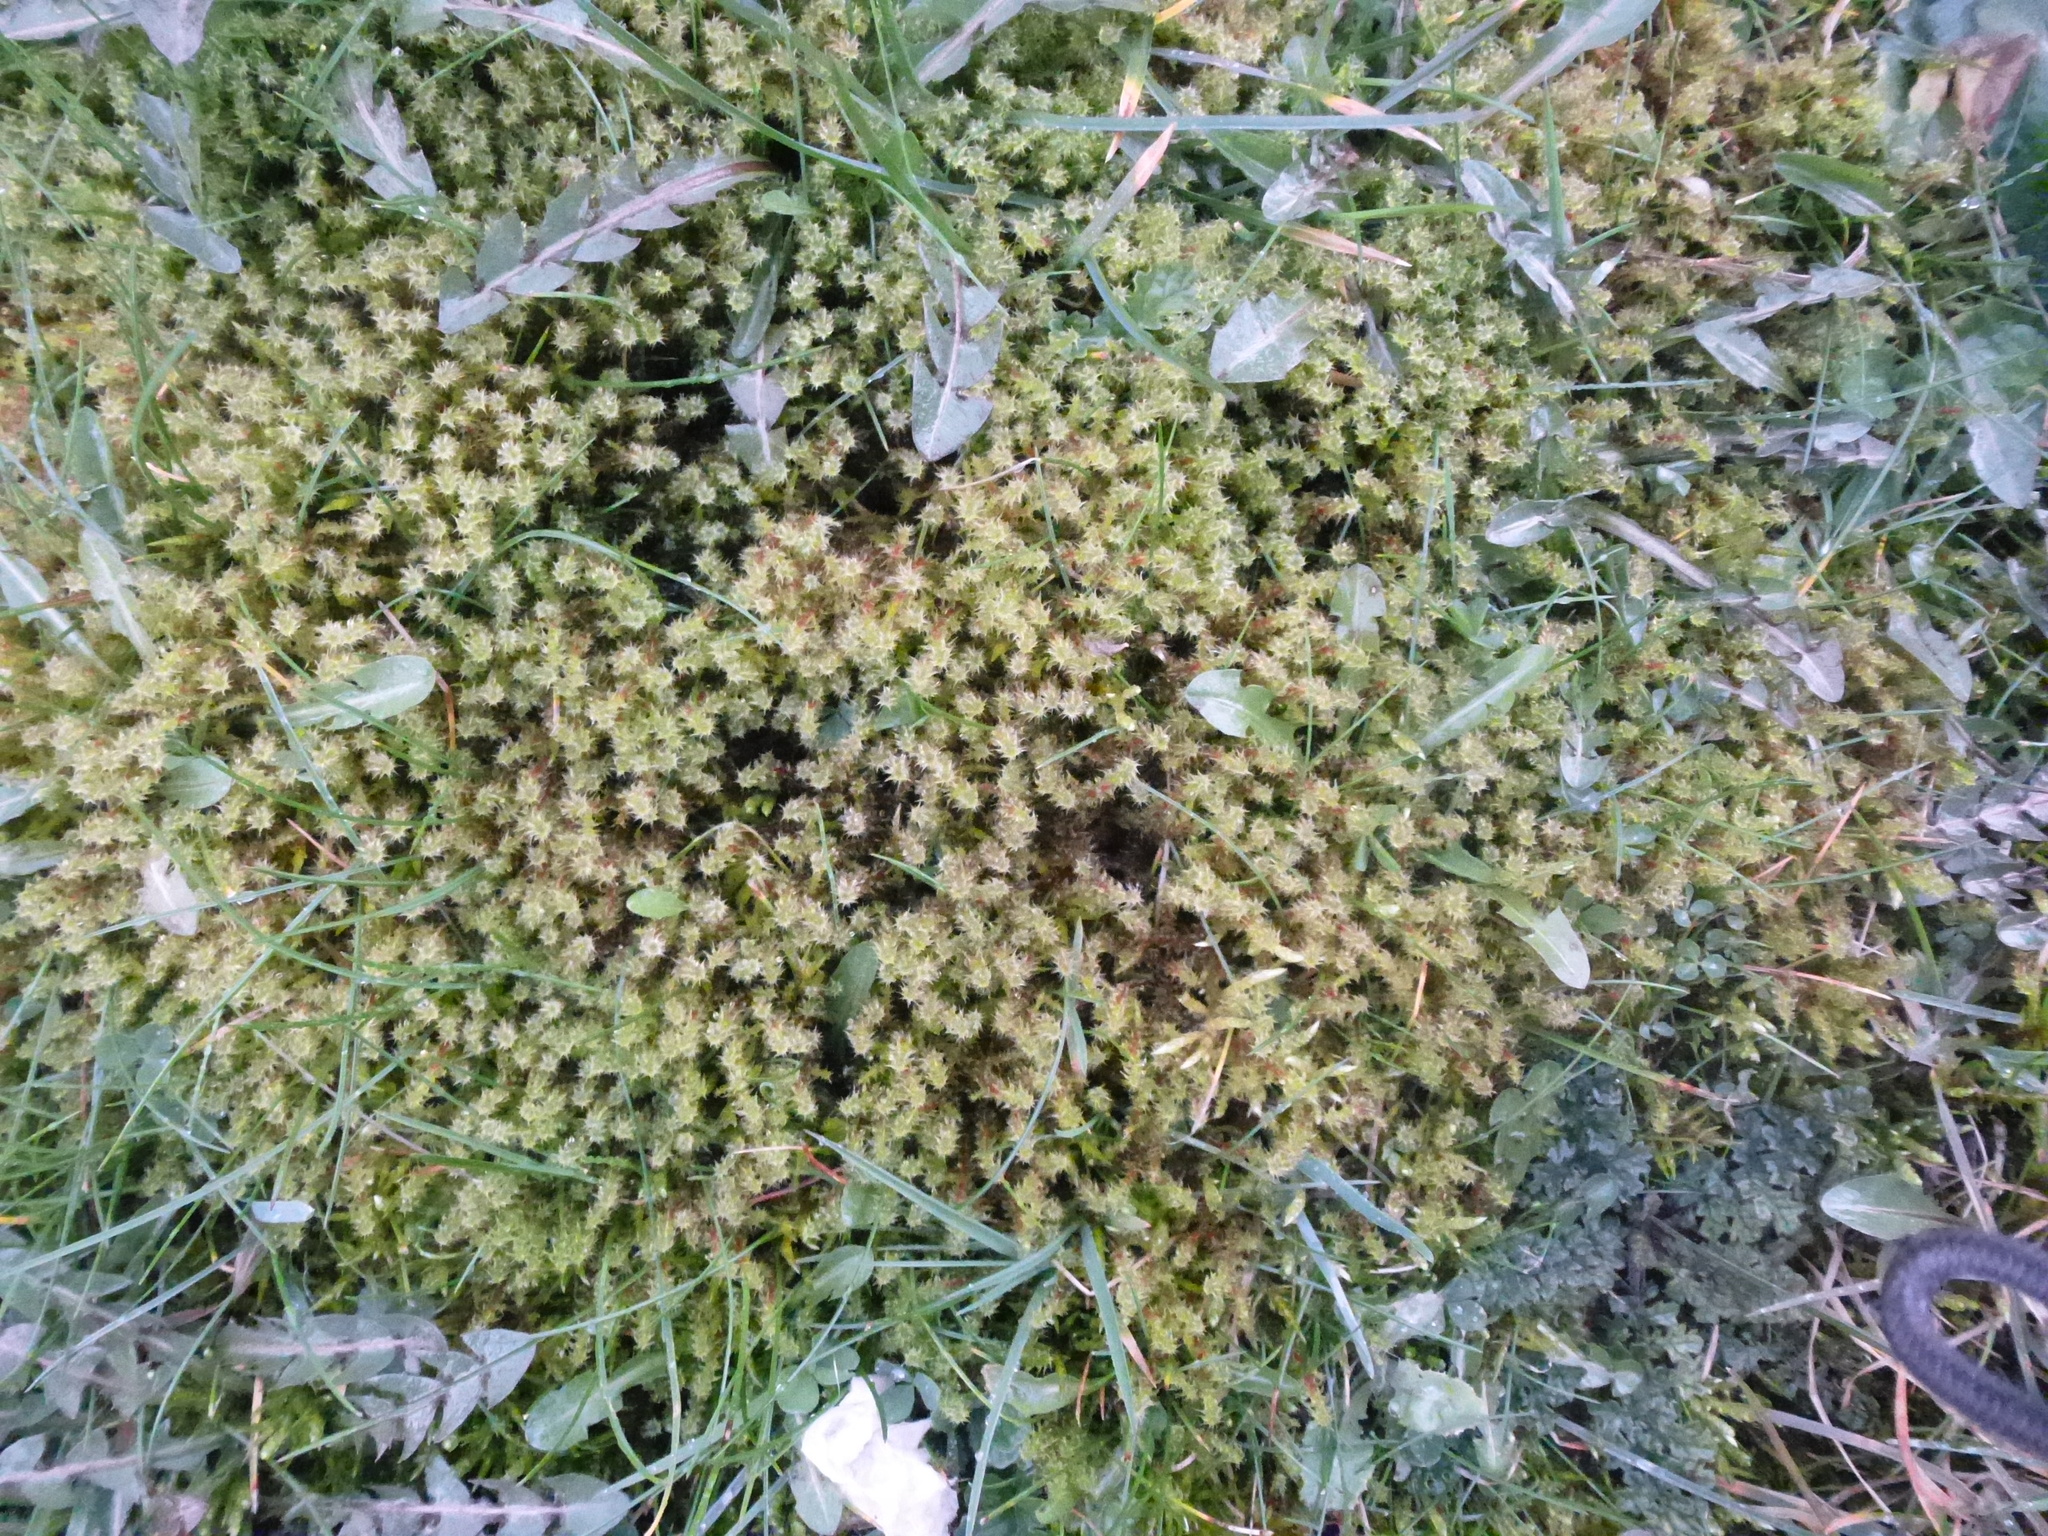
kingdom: Plantae
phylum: Bryophyta
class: Bryopsida
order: Hypnales
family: Hylocomiaceae
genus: Rhytidiadelphus
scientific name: Rhytidiadelphus squarrosus
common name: Springy turf-moss
